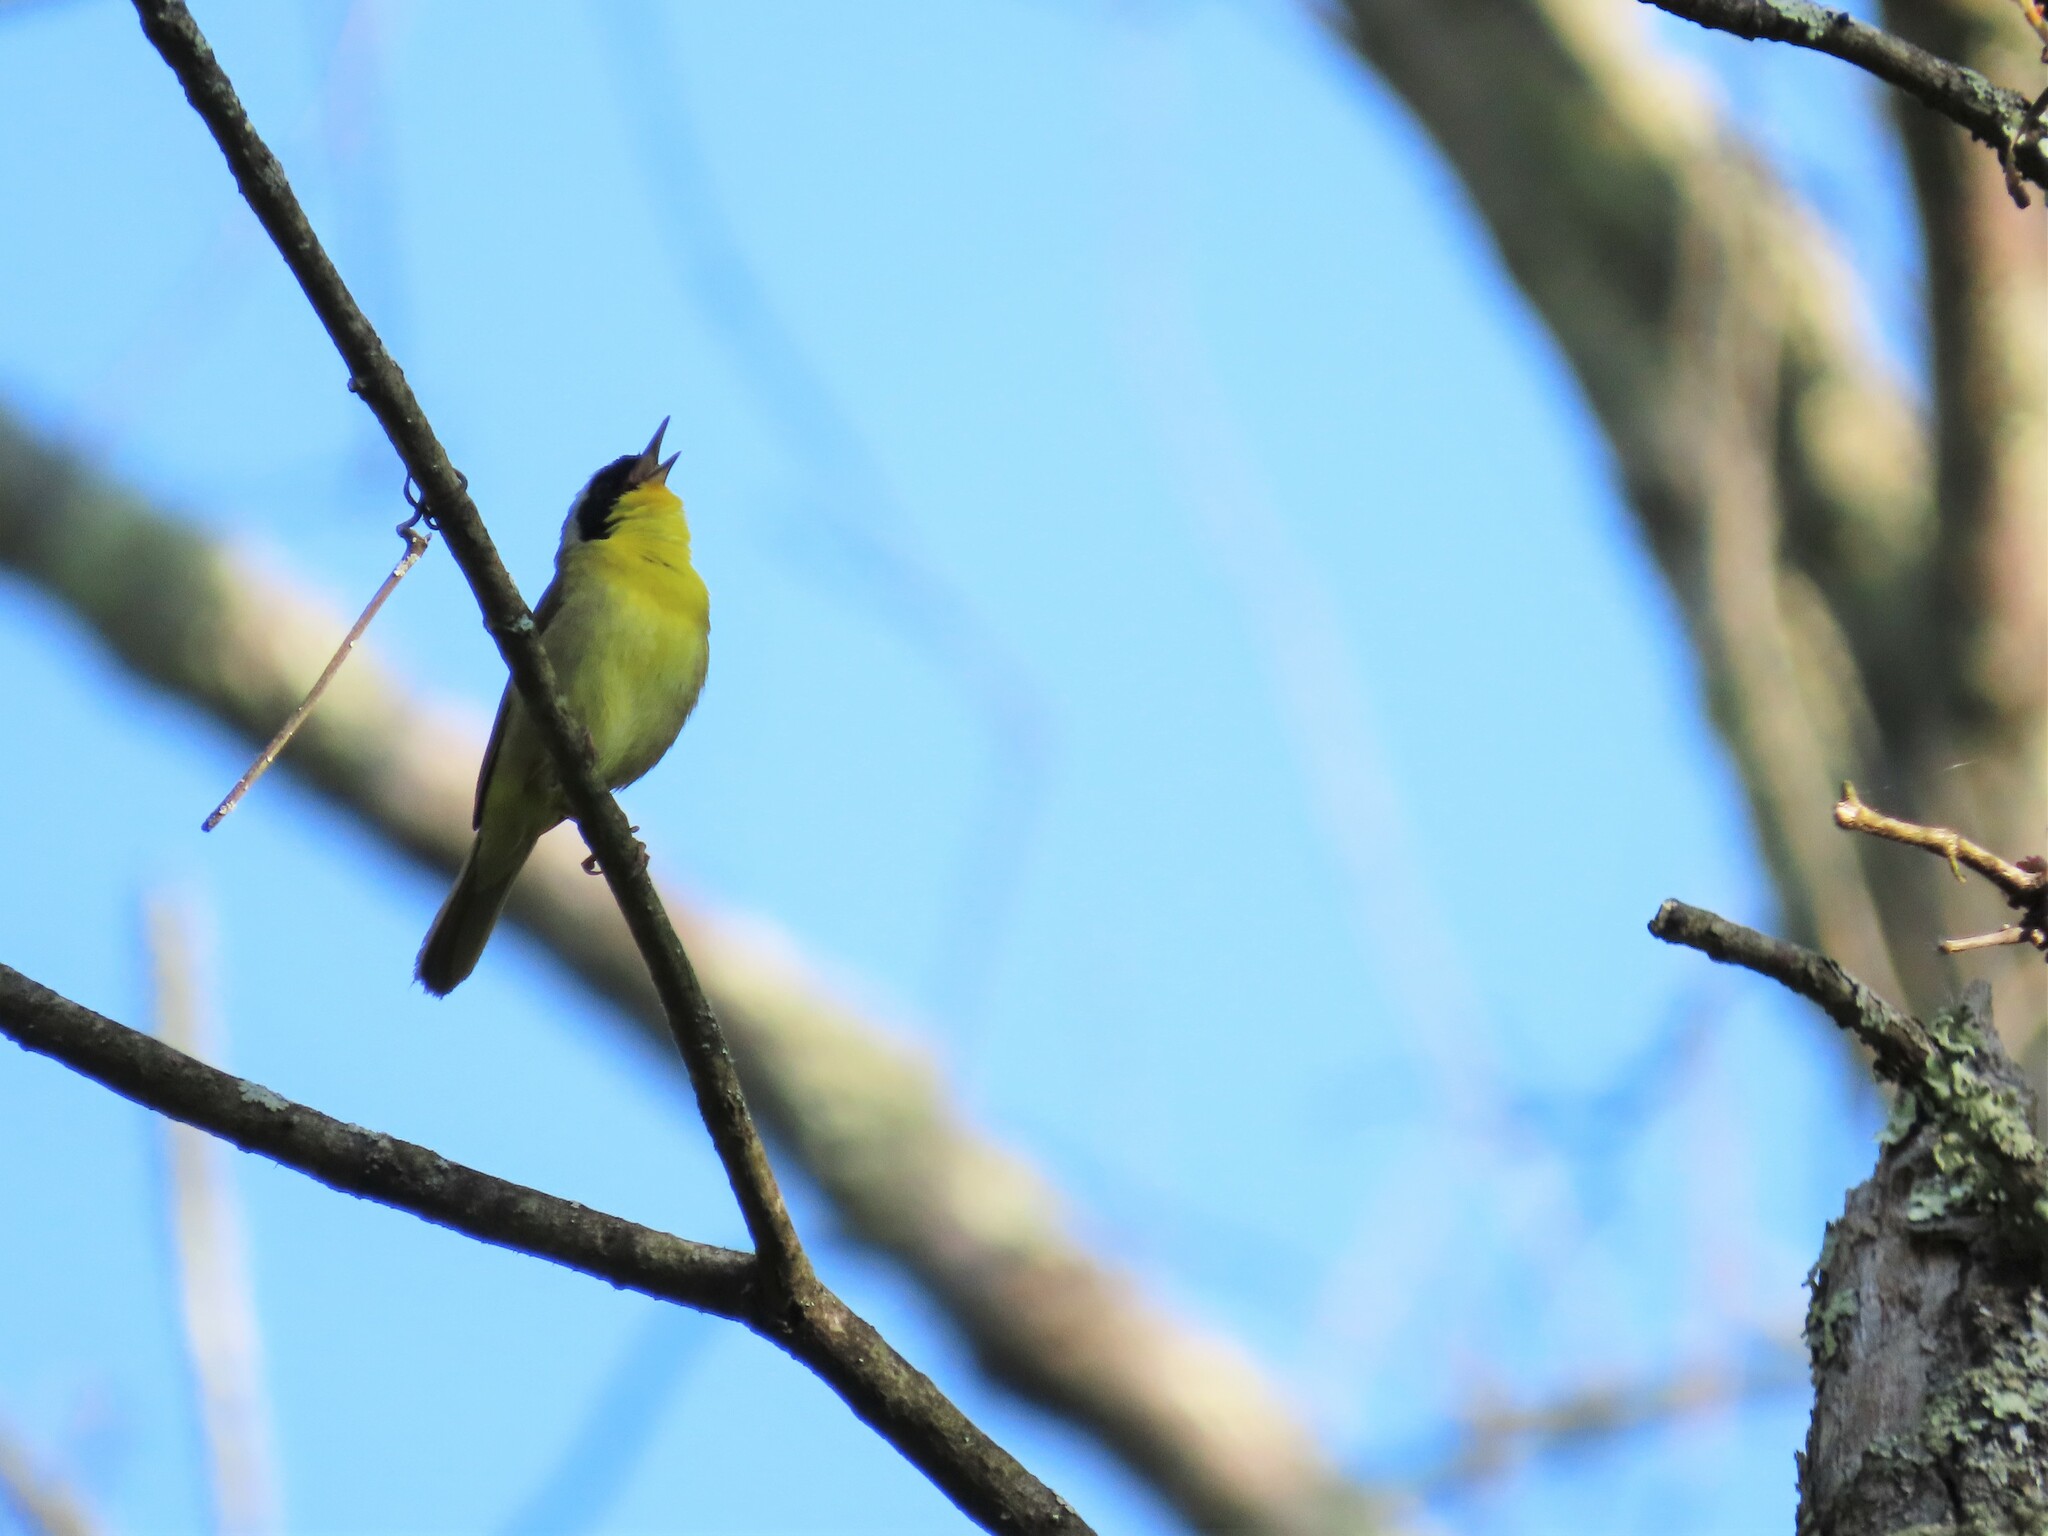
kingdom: Animalia
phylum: Chordata
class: Aves
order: Passeriformes
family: Parulidae
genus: Geothlypis
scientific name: Geothlypis trichas
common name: Common yellowthroat
